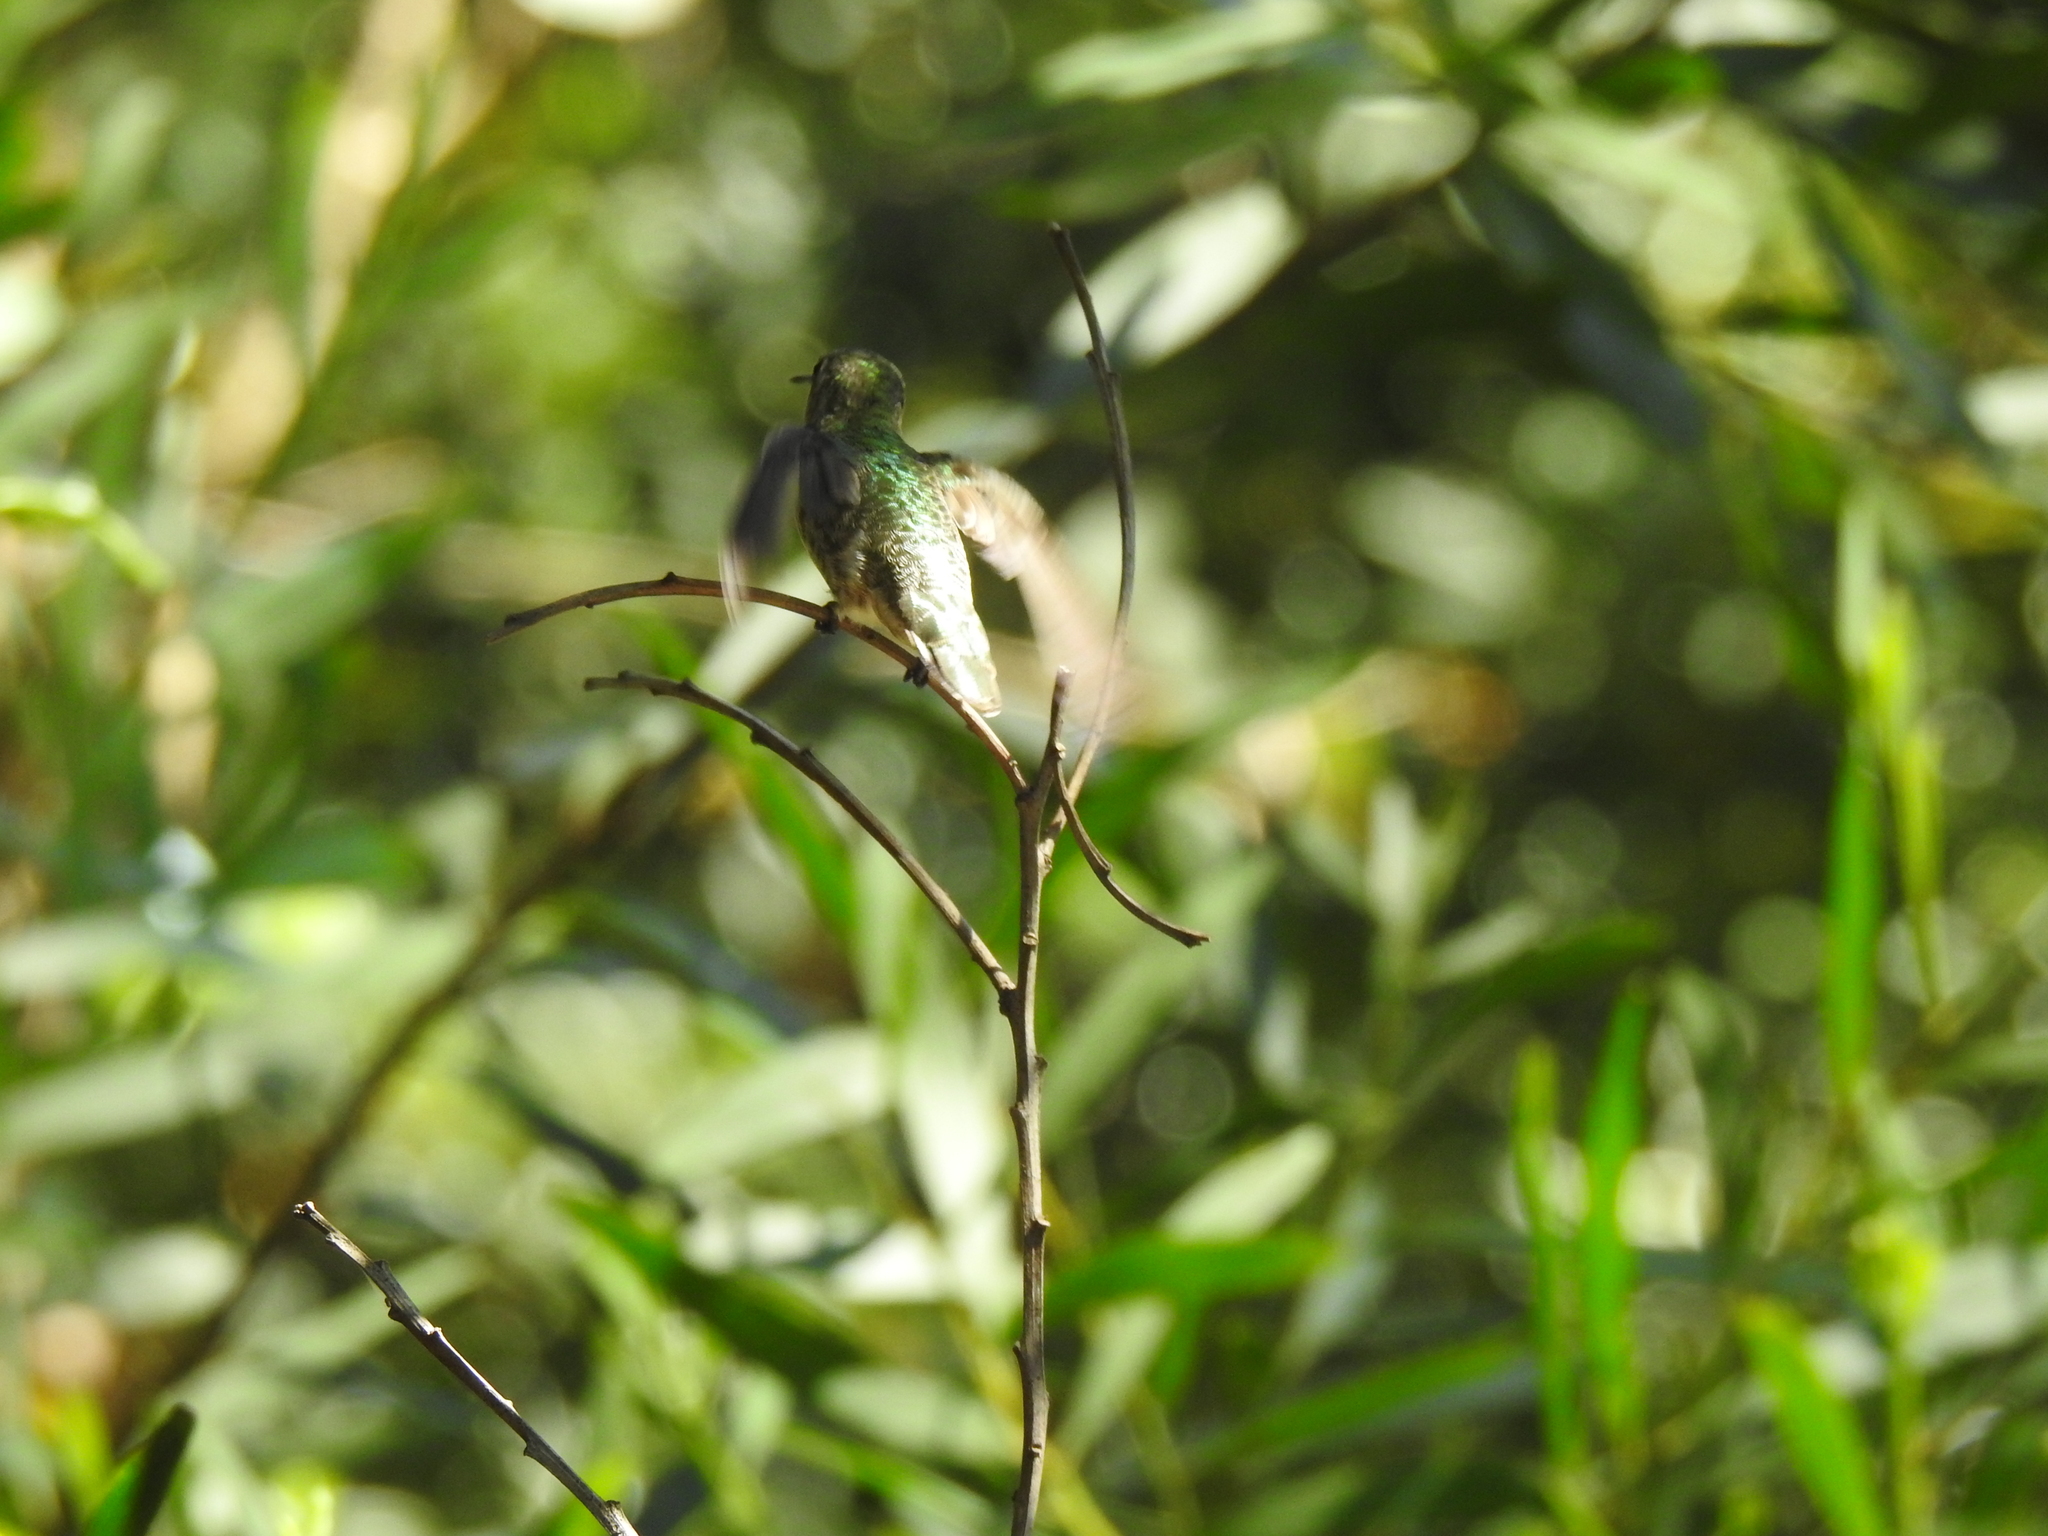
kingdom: Animalia
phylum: Chordata
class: Aves
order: Apodiformes
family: Trochilidae
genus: Calypte
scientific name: Calypte anna
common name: Anna's hummingbird
